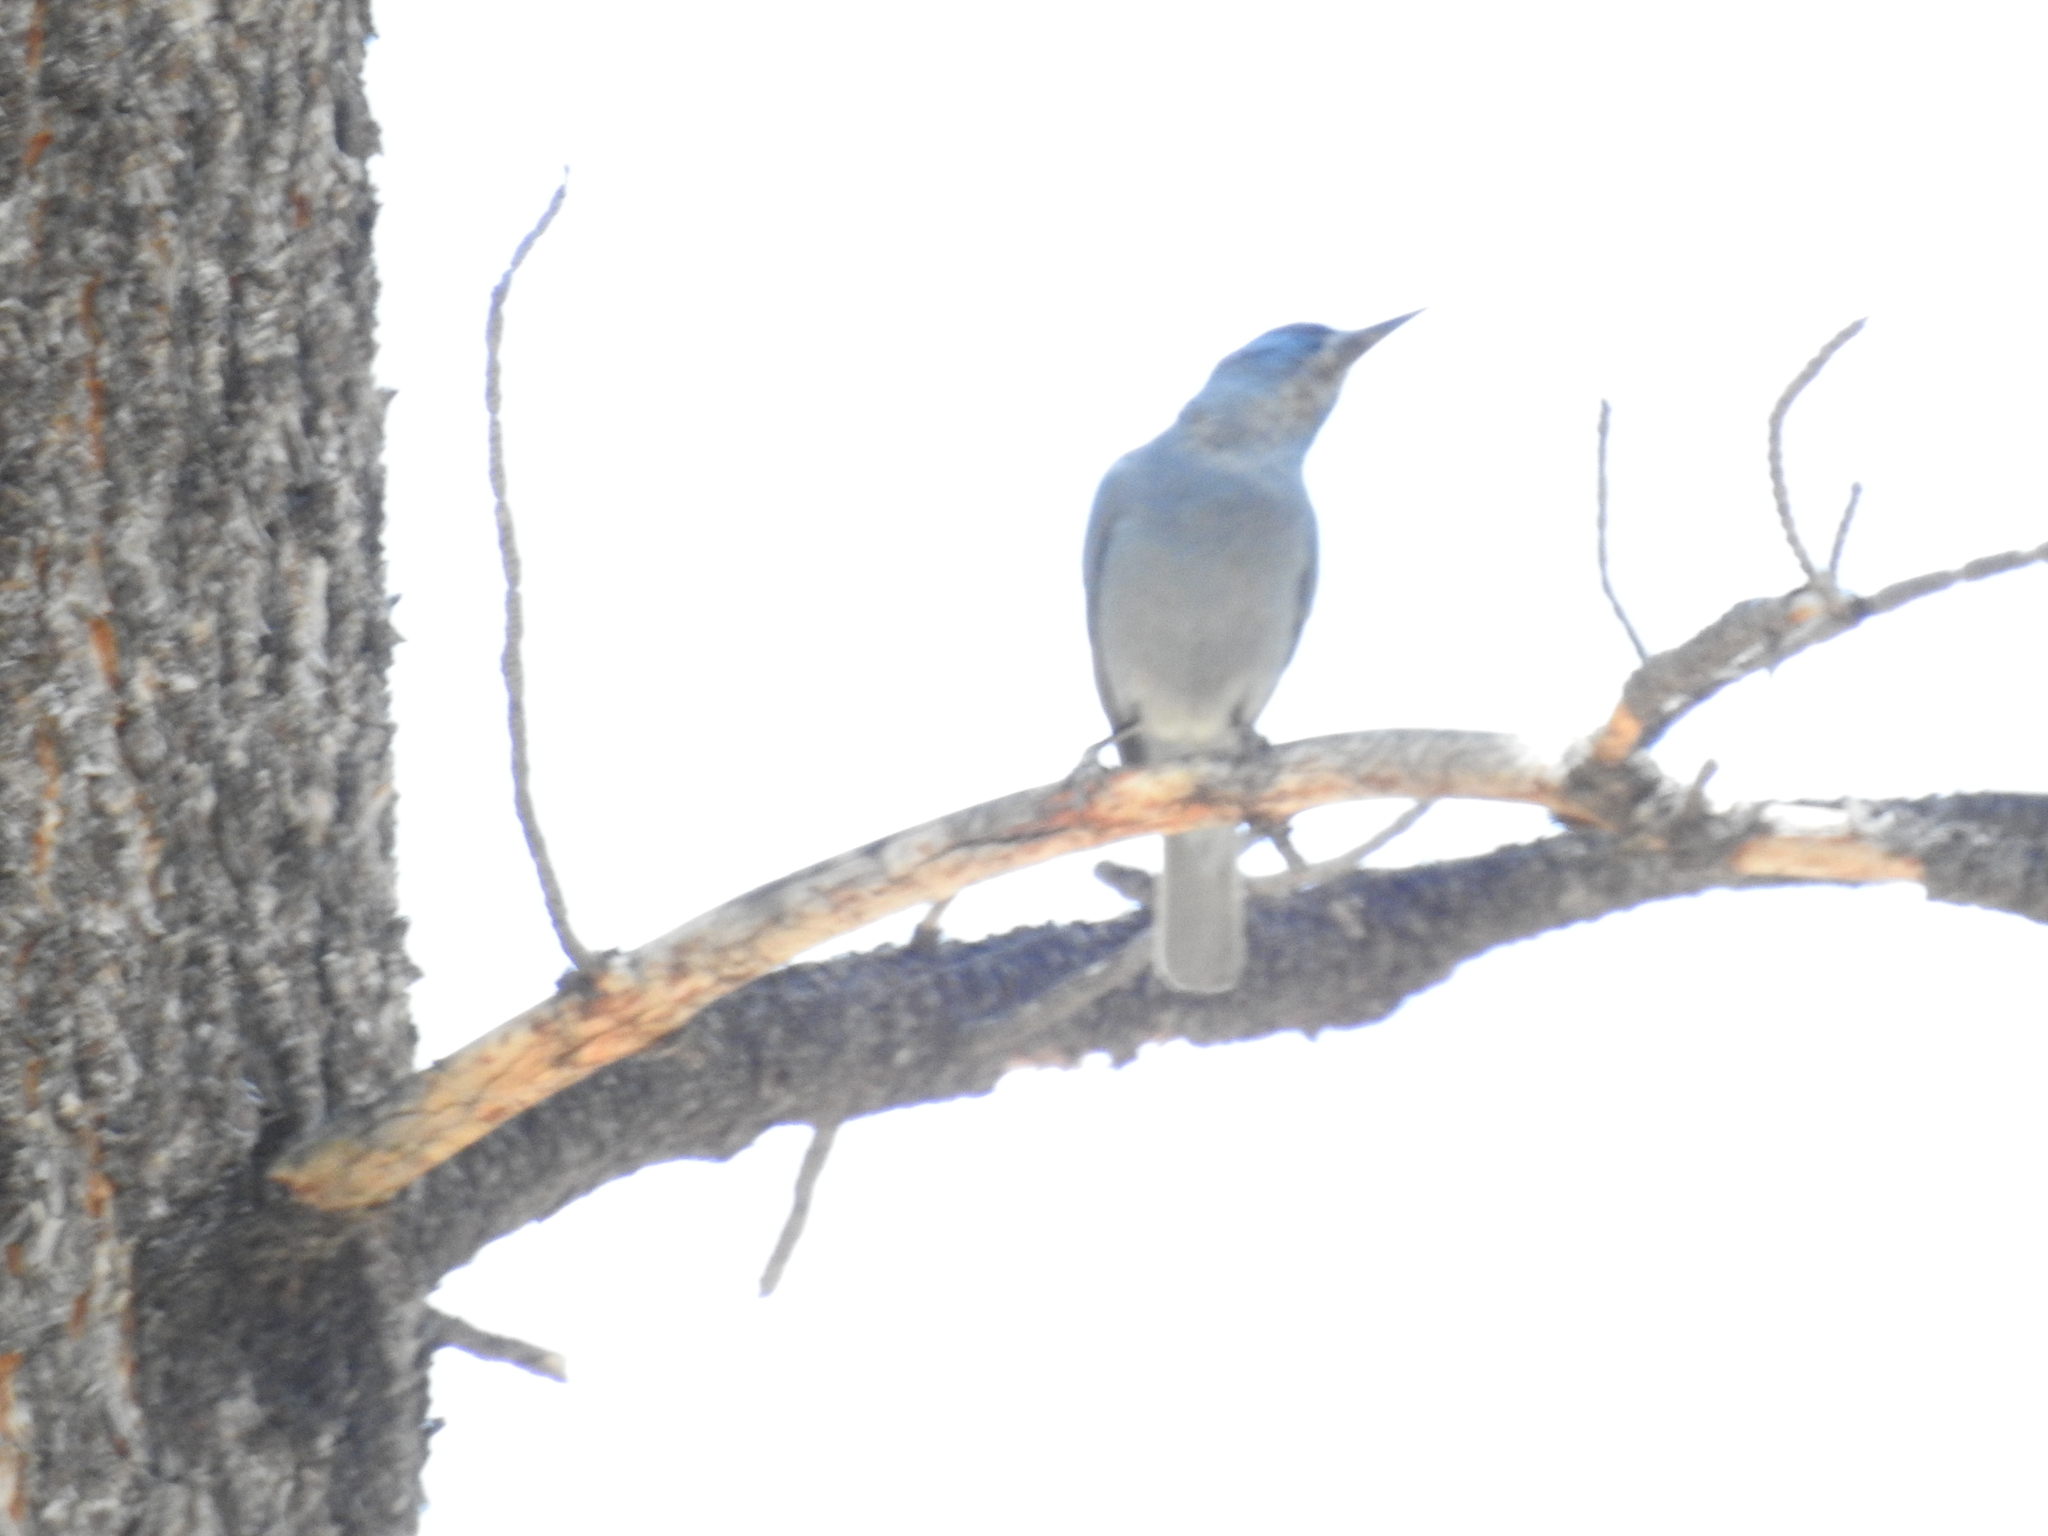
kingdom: Animalia
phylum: Chordata
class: Aves
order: Passeriformes
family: Corvidae
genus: Gymnorhinus
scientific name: Gymnorhinus cyanocephalus
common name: Pinyon jay
